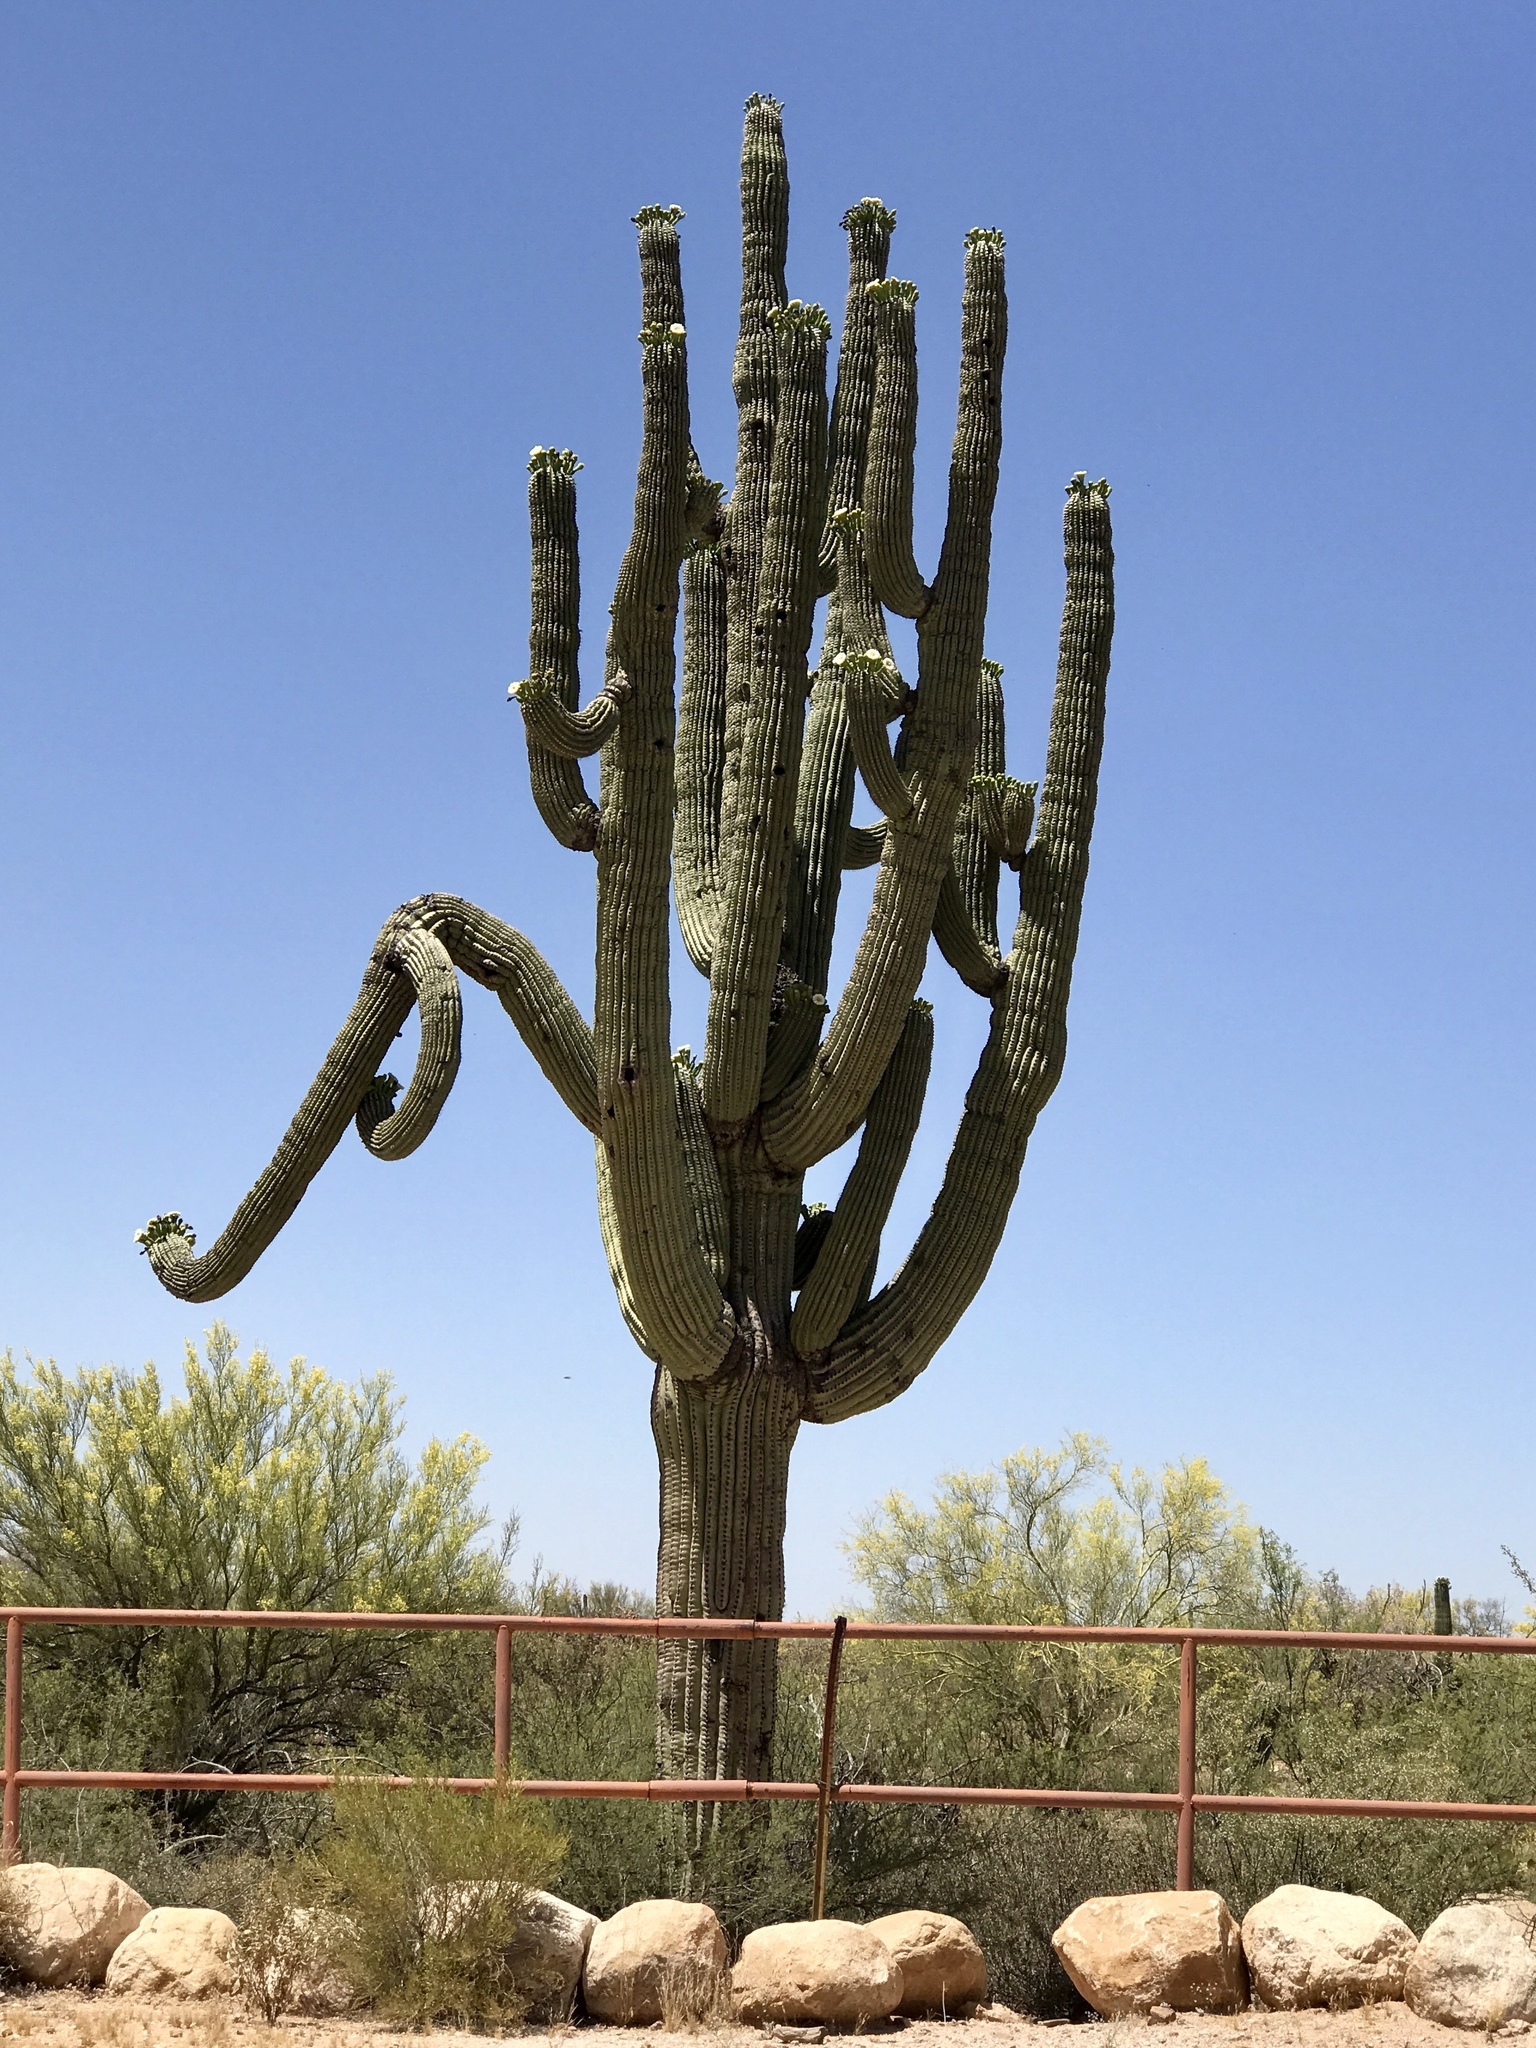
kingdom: Plantae
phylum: Tracheophyta
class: Magnoliopsida
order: Caryophyllales
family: Cactaceae
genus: Carnegiea
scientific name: Carnegiea gigantea
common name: Saguaro
